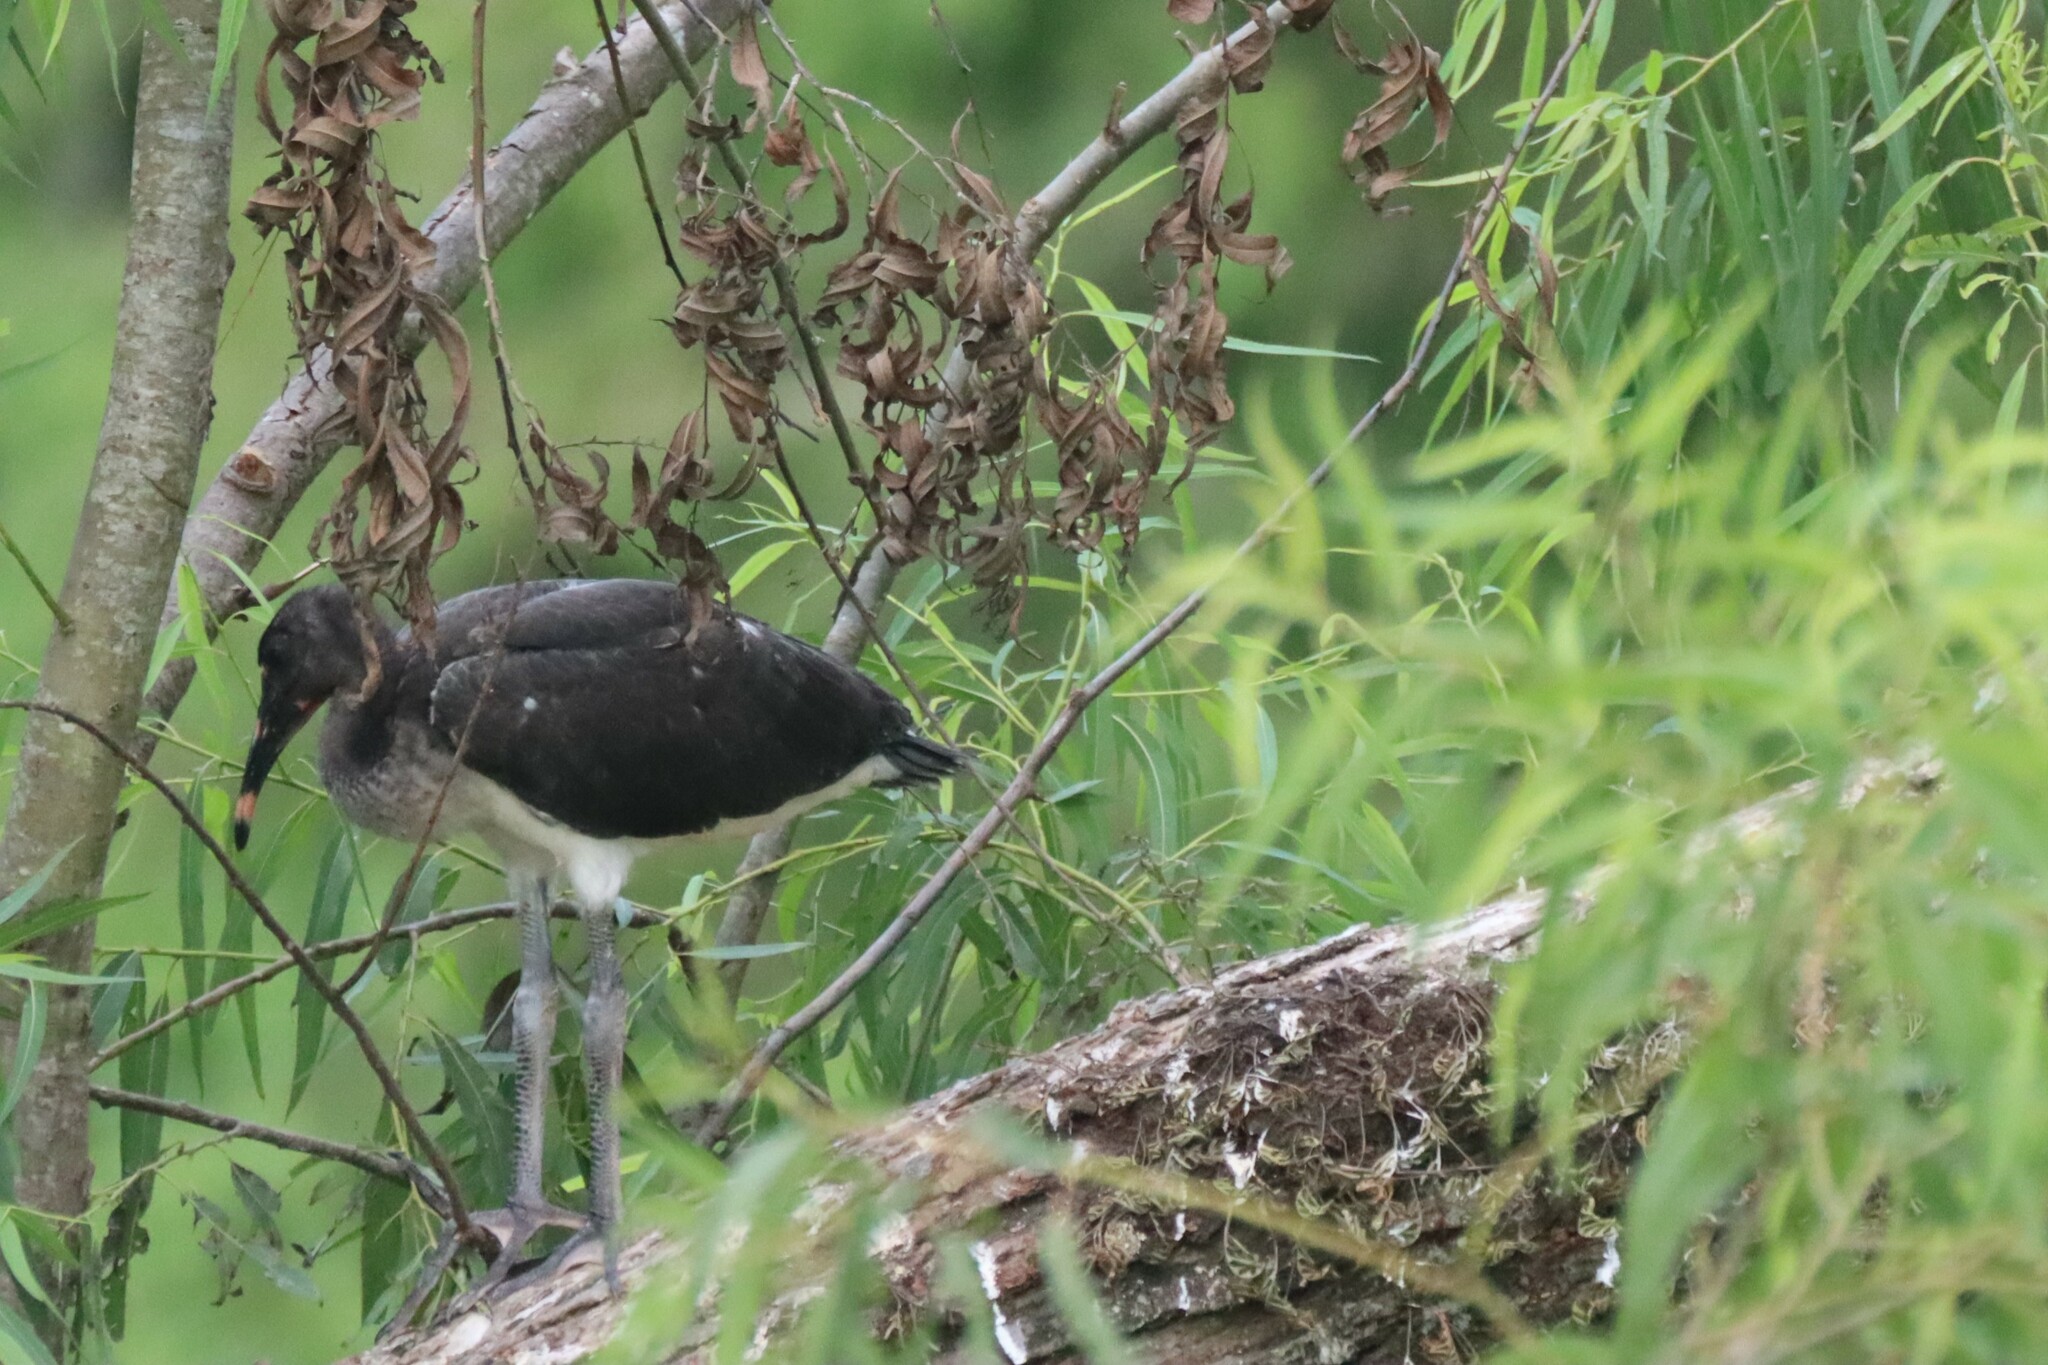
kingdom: Animalia
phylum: Chordata
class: Aves
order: Pelecaniformes
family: Threskiornithidae
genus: Eudocimus
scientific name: Eudocimus albus
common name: White ibis
